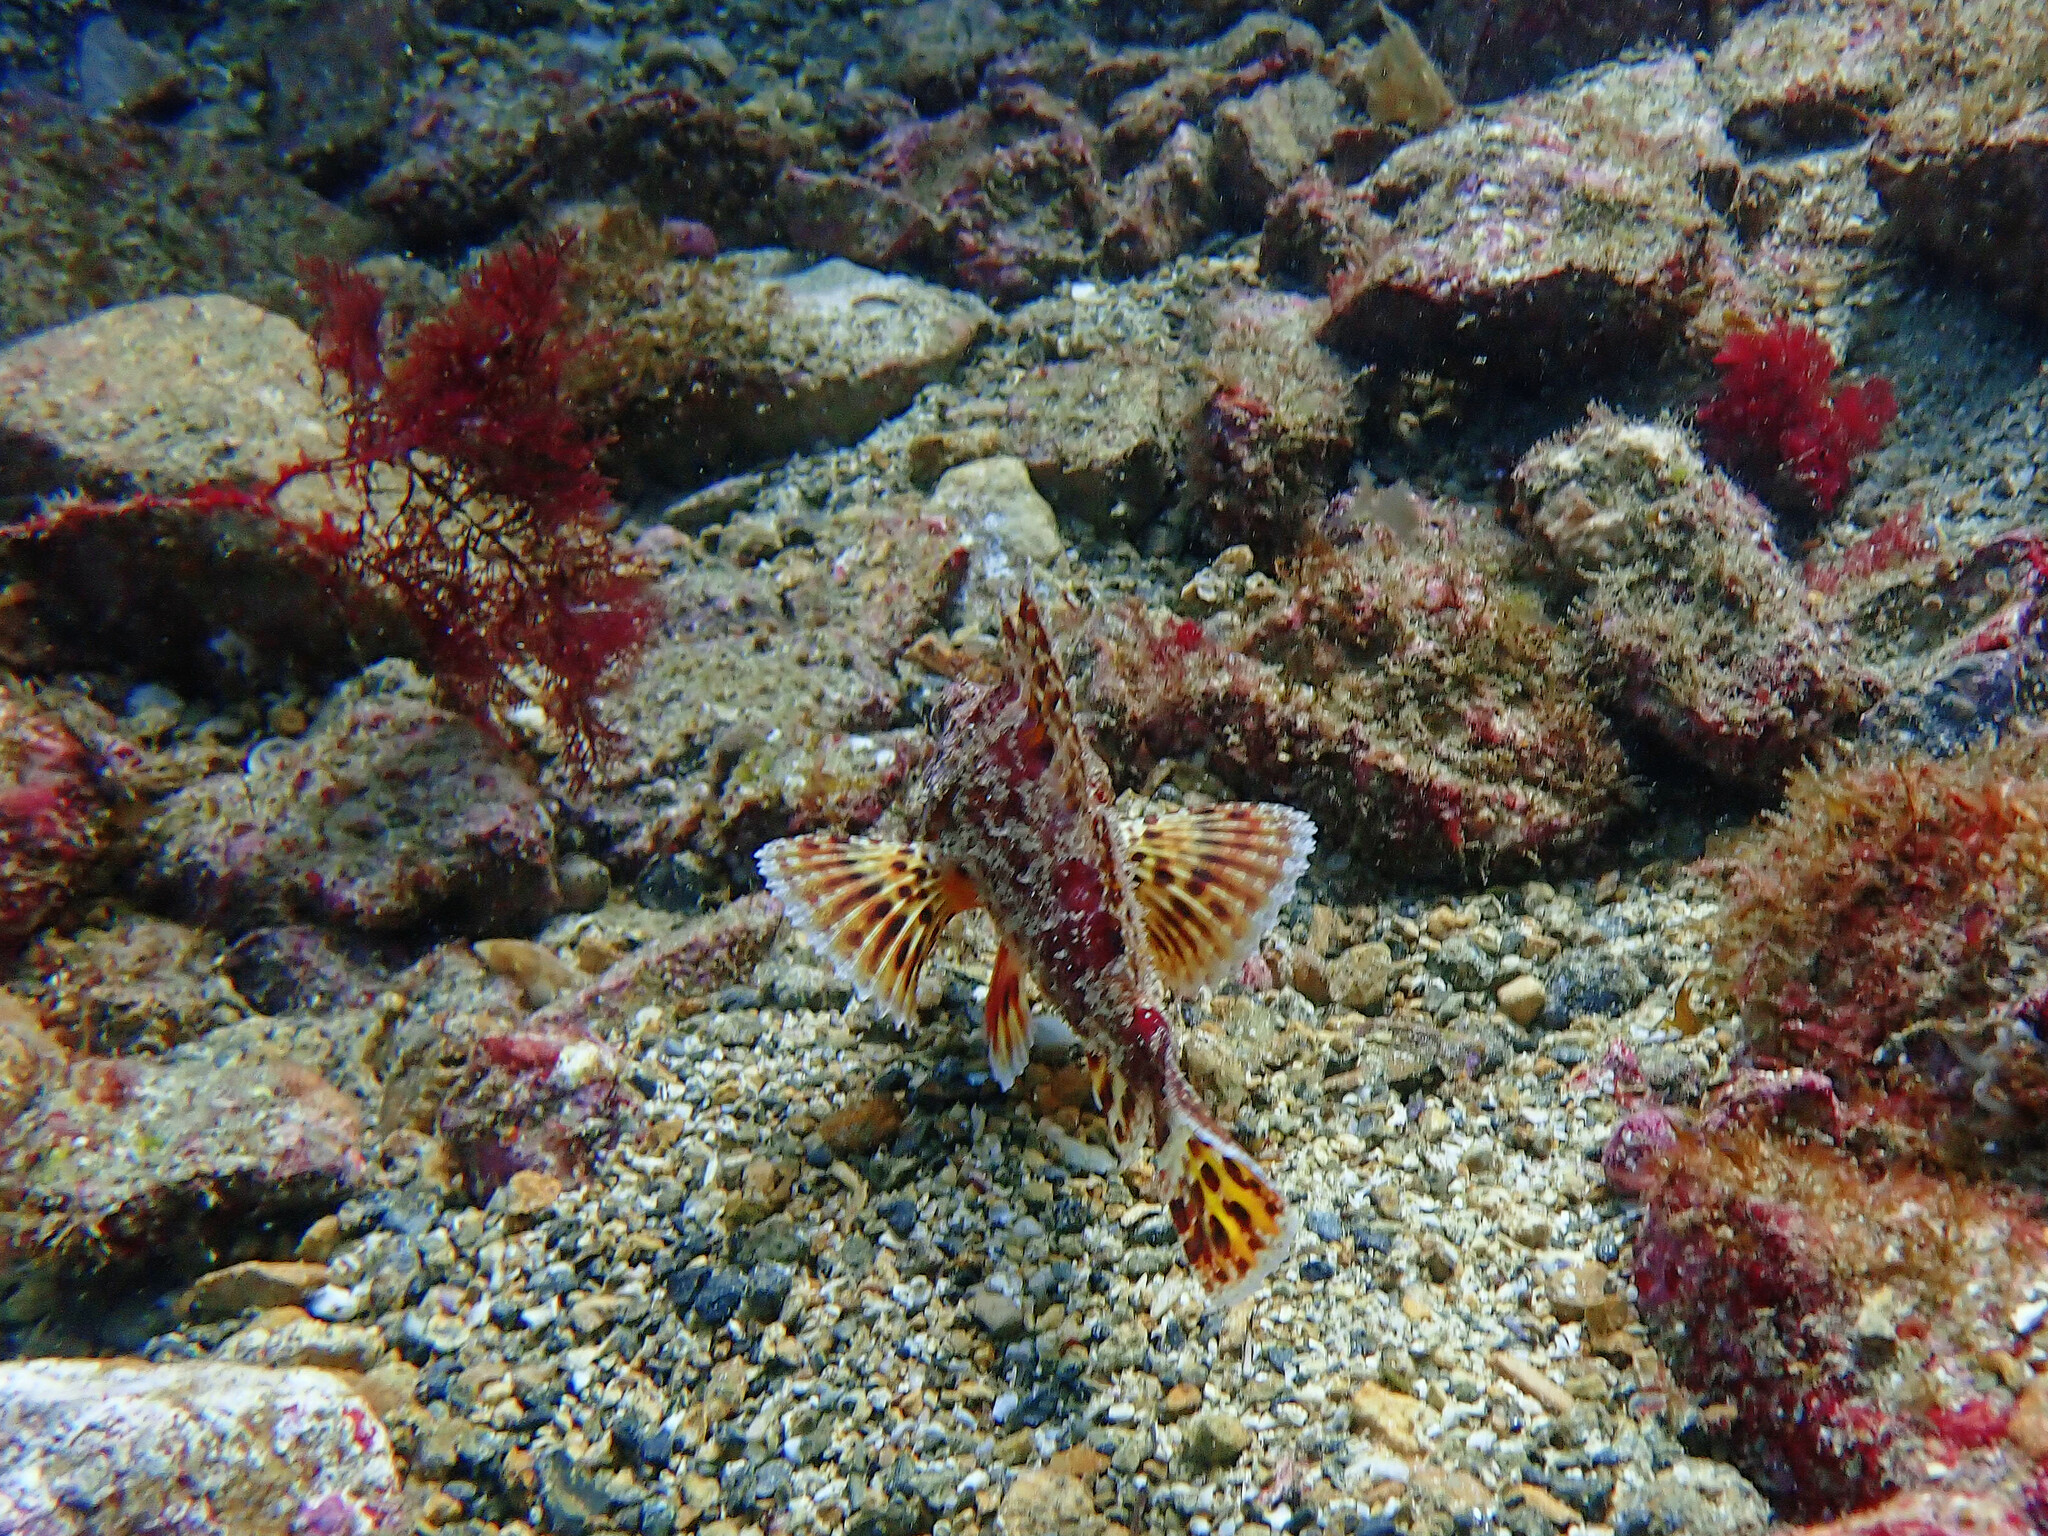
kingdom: Animalia
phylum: Chordata
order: Scorpaeniformes
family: Scorpaenidae
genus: Scorpaena
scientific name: Scorpaena guttata
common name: California scorpionfish
